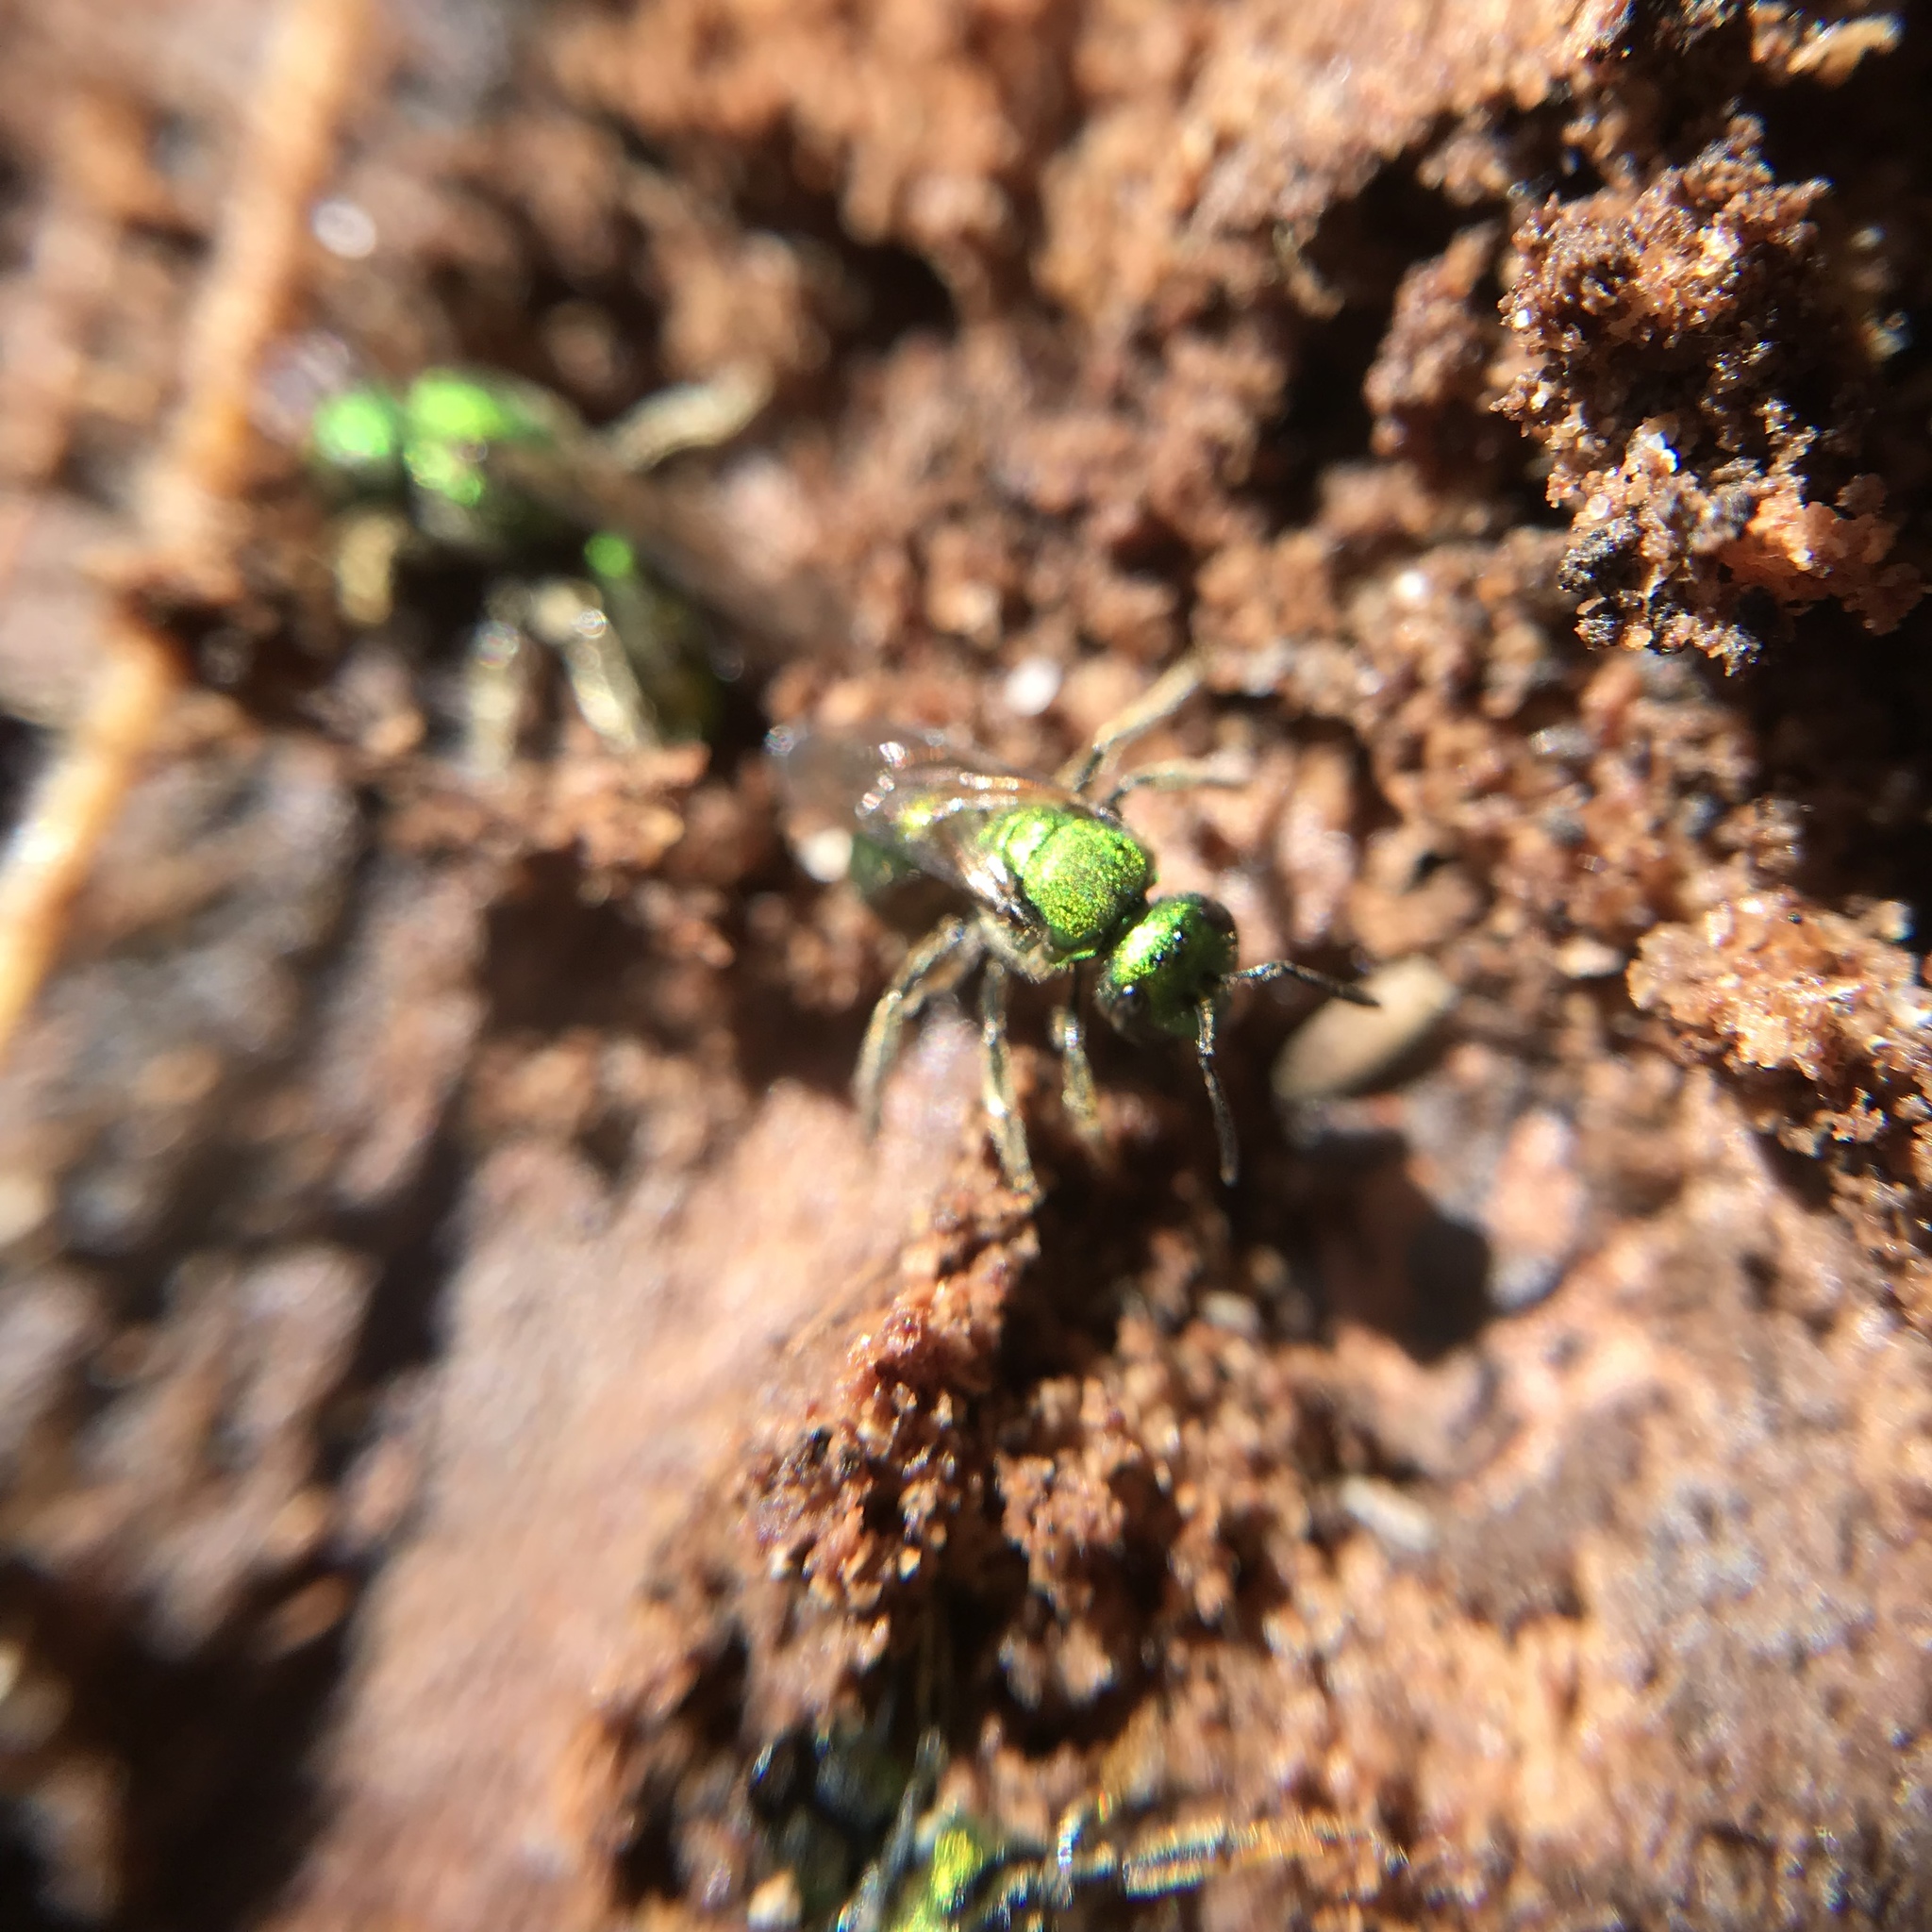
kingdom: Animalia
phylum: Arthropoda
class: Insecta
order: Hymenoptera
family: Halictidae
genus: Augochlora
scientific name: Augochlora pura
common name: Pure green sweat bee
